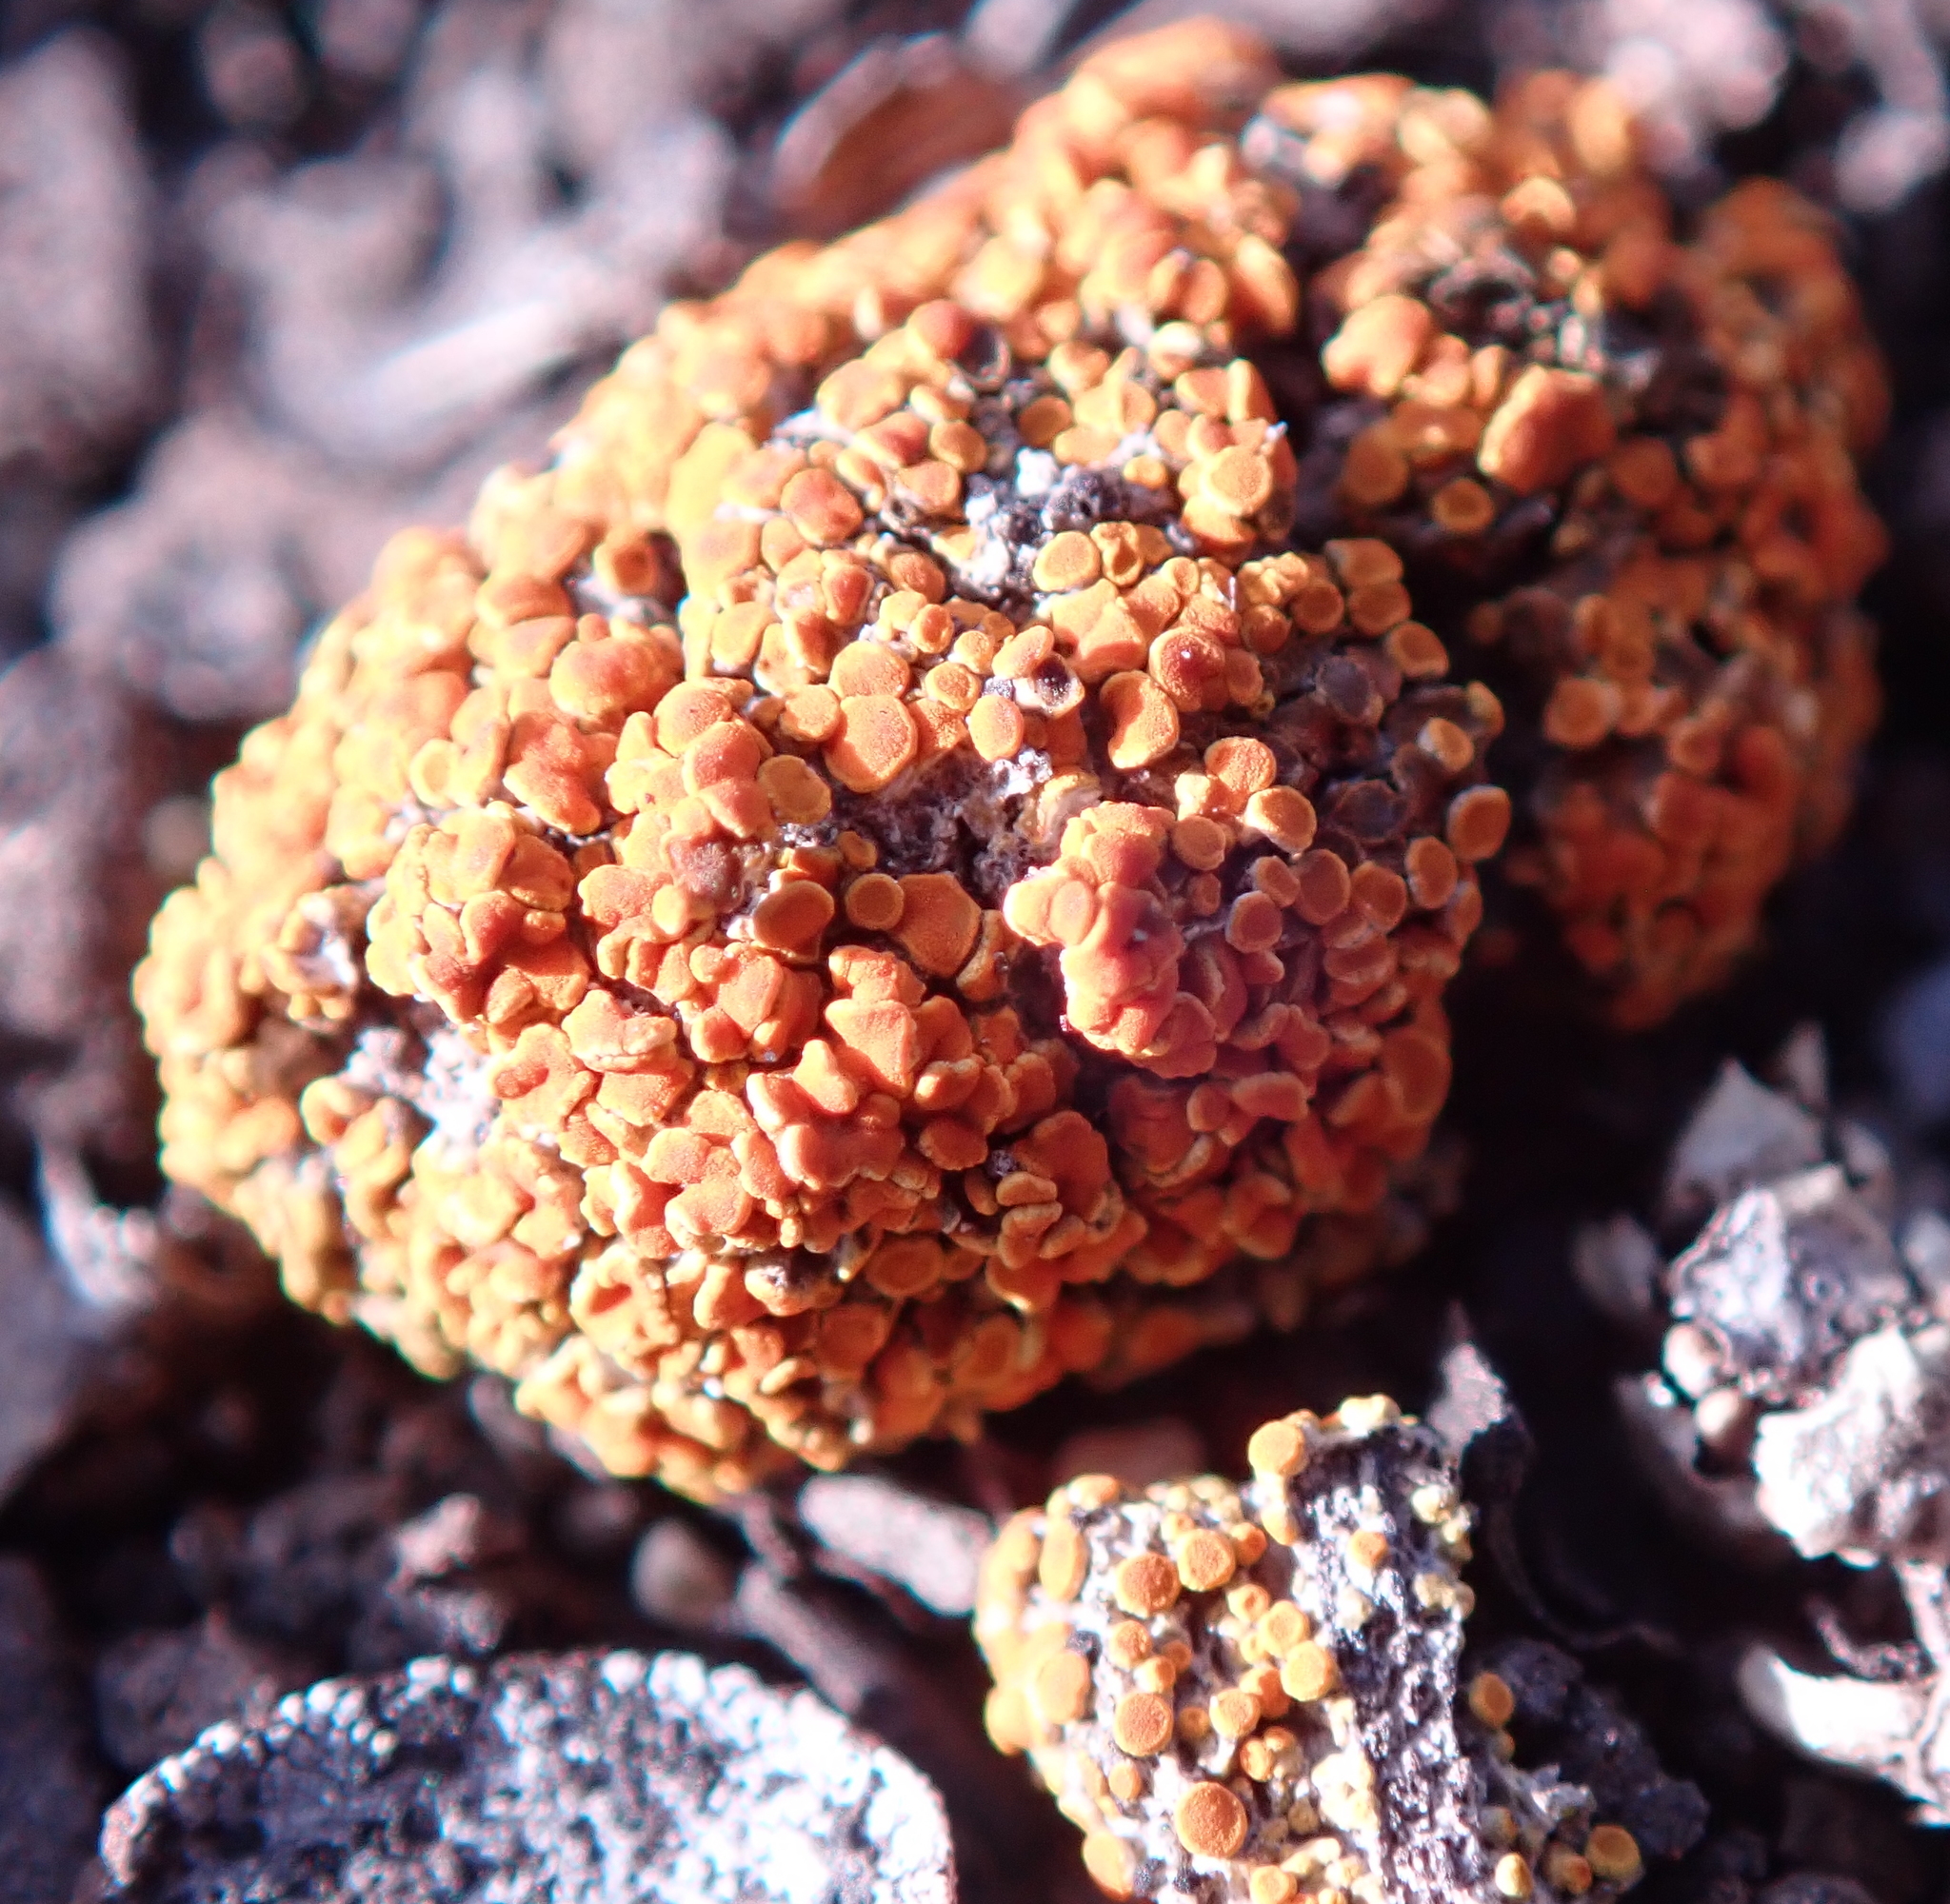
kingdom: Fungi
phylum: Ascomycota
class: Lecanoromycetes
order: Teloschistales
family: Teloschistaceae
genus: Caloplaca
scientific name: Caloplaca subpyracella
